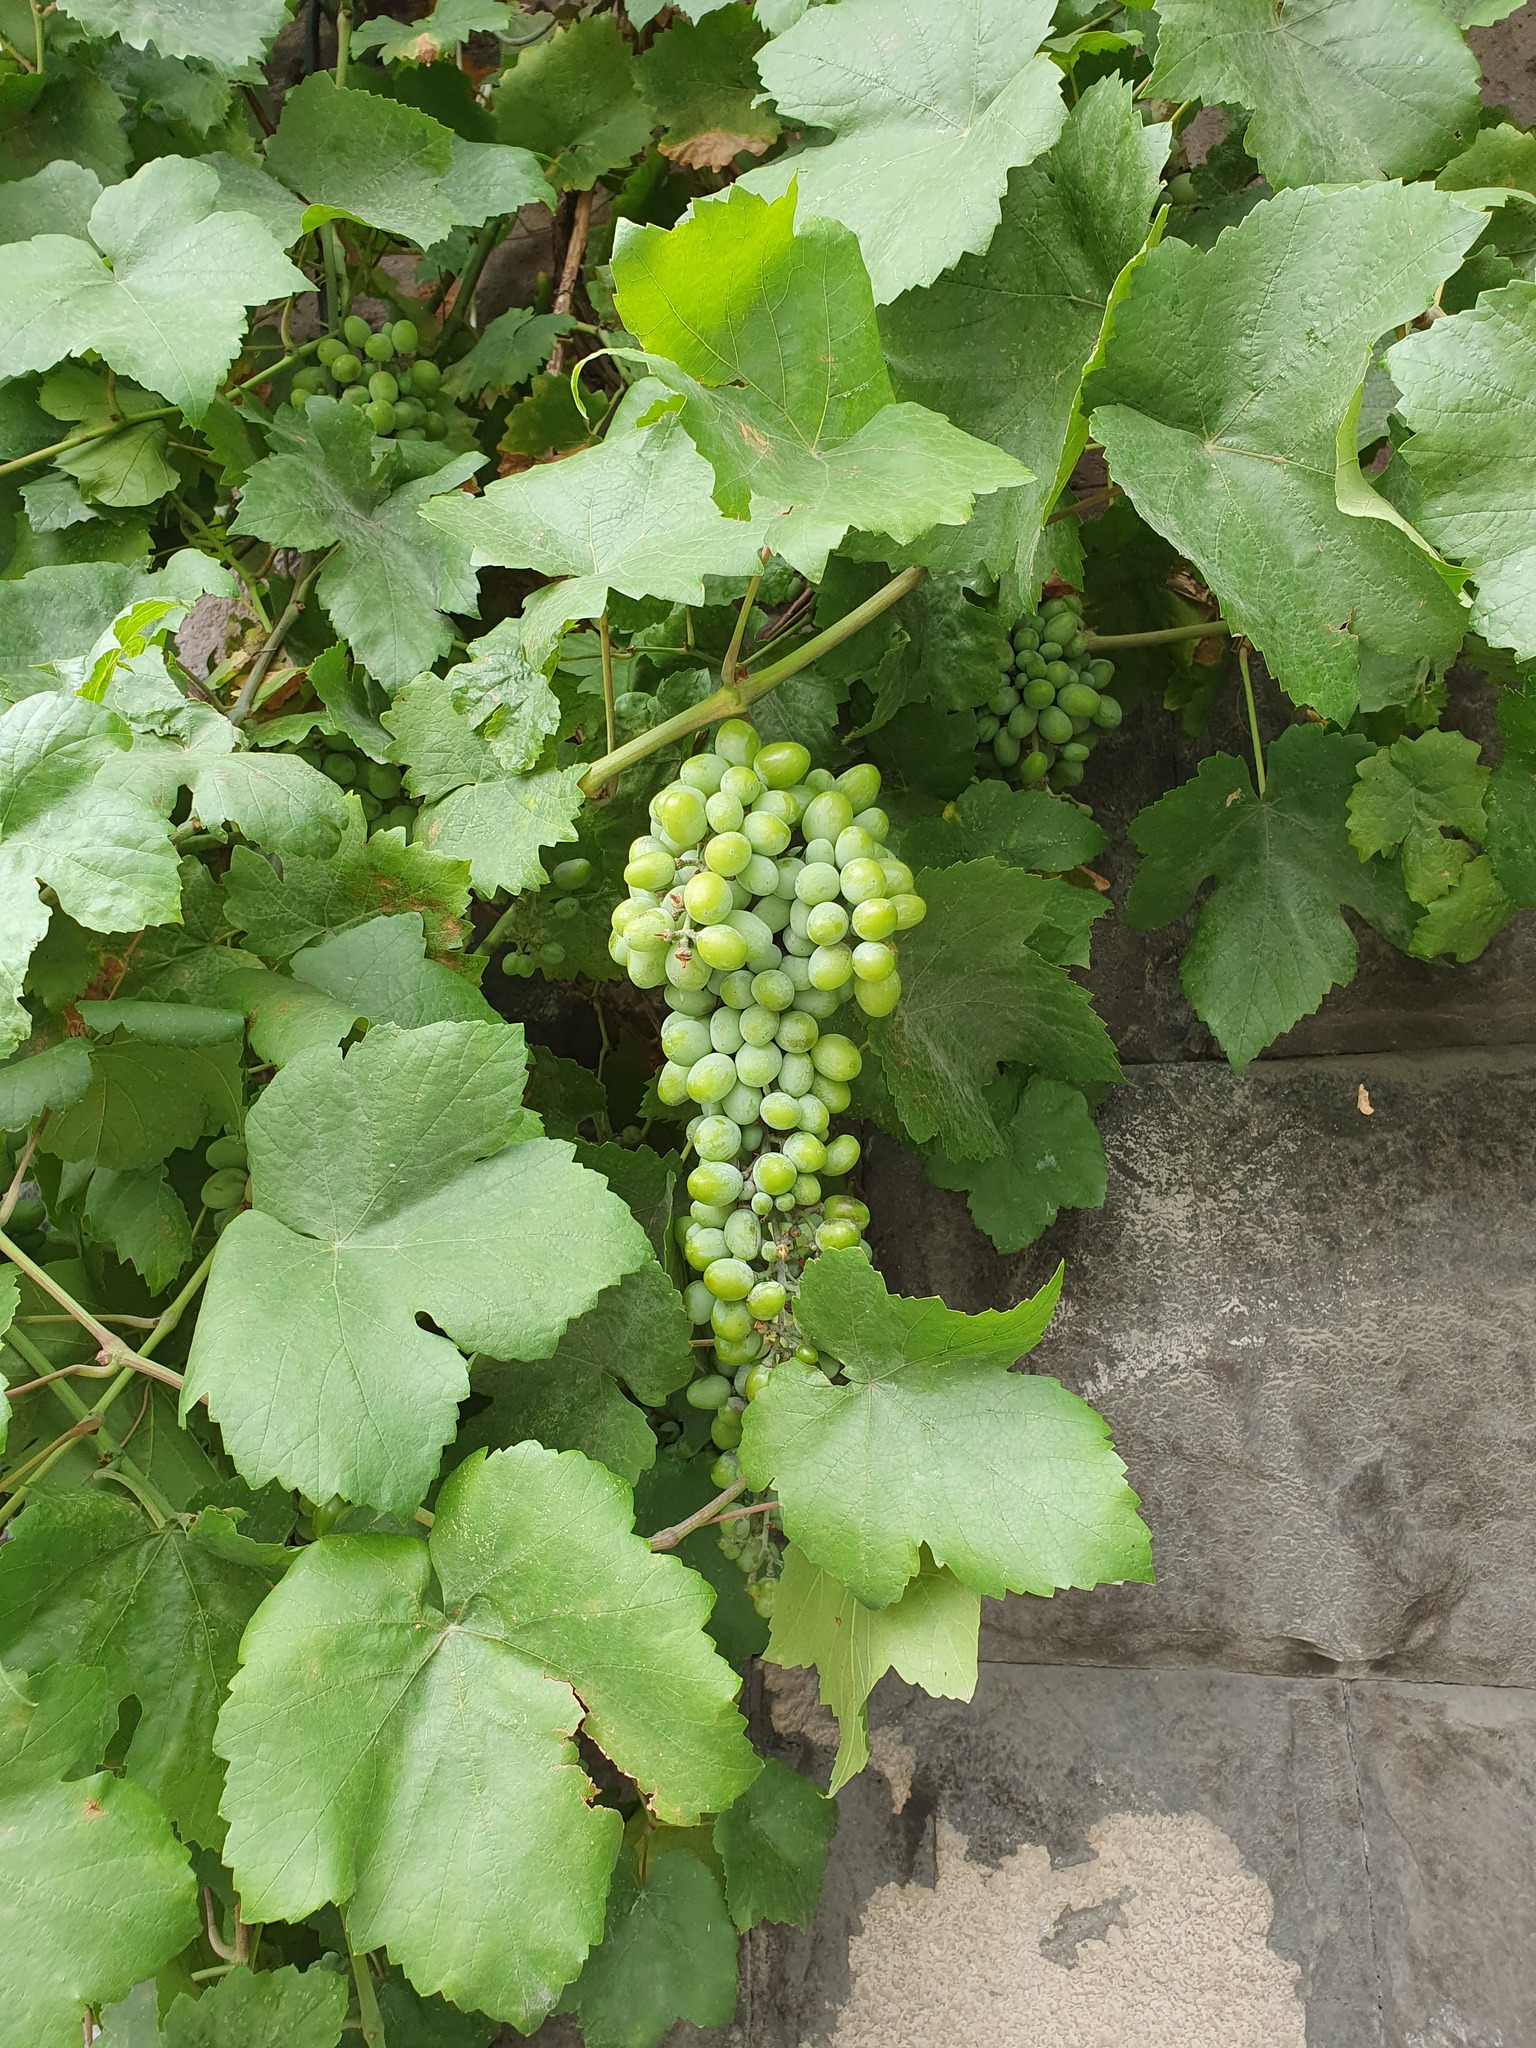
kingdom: Plantae
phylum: Tracheophyta
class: Magnoliopsida
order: Vitales
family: Vitaceae
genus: Vitis
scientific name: Vitis vinifera
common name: Grape-vine
